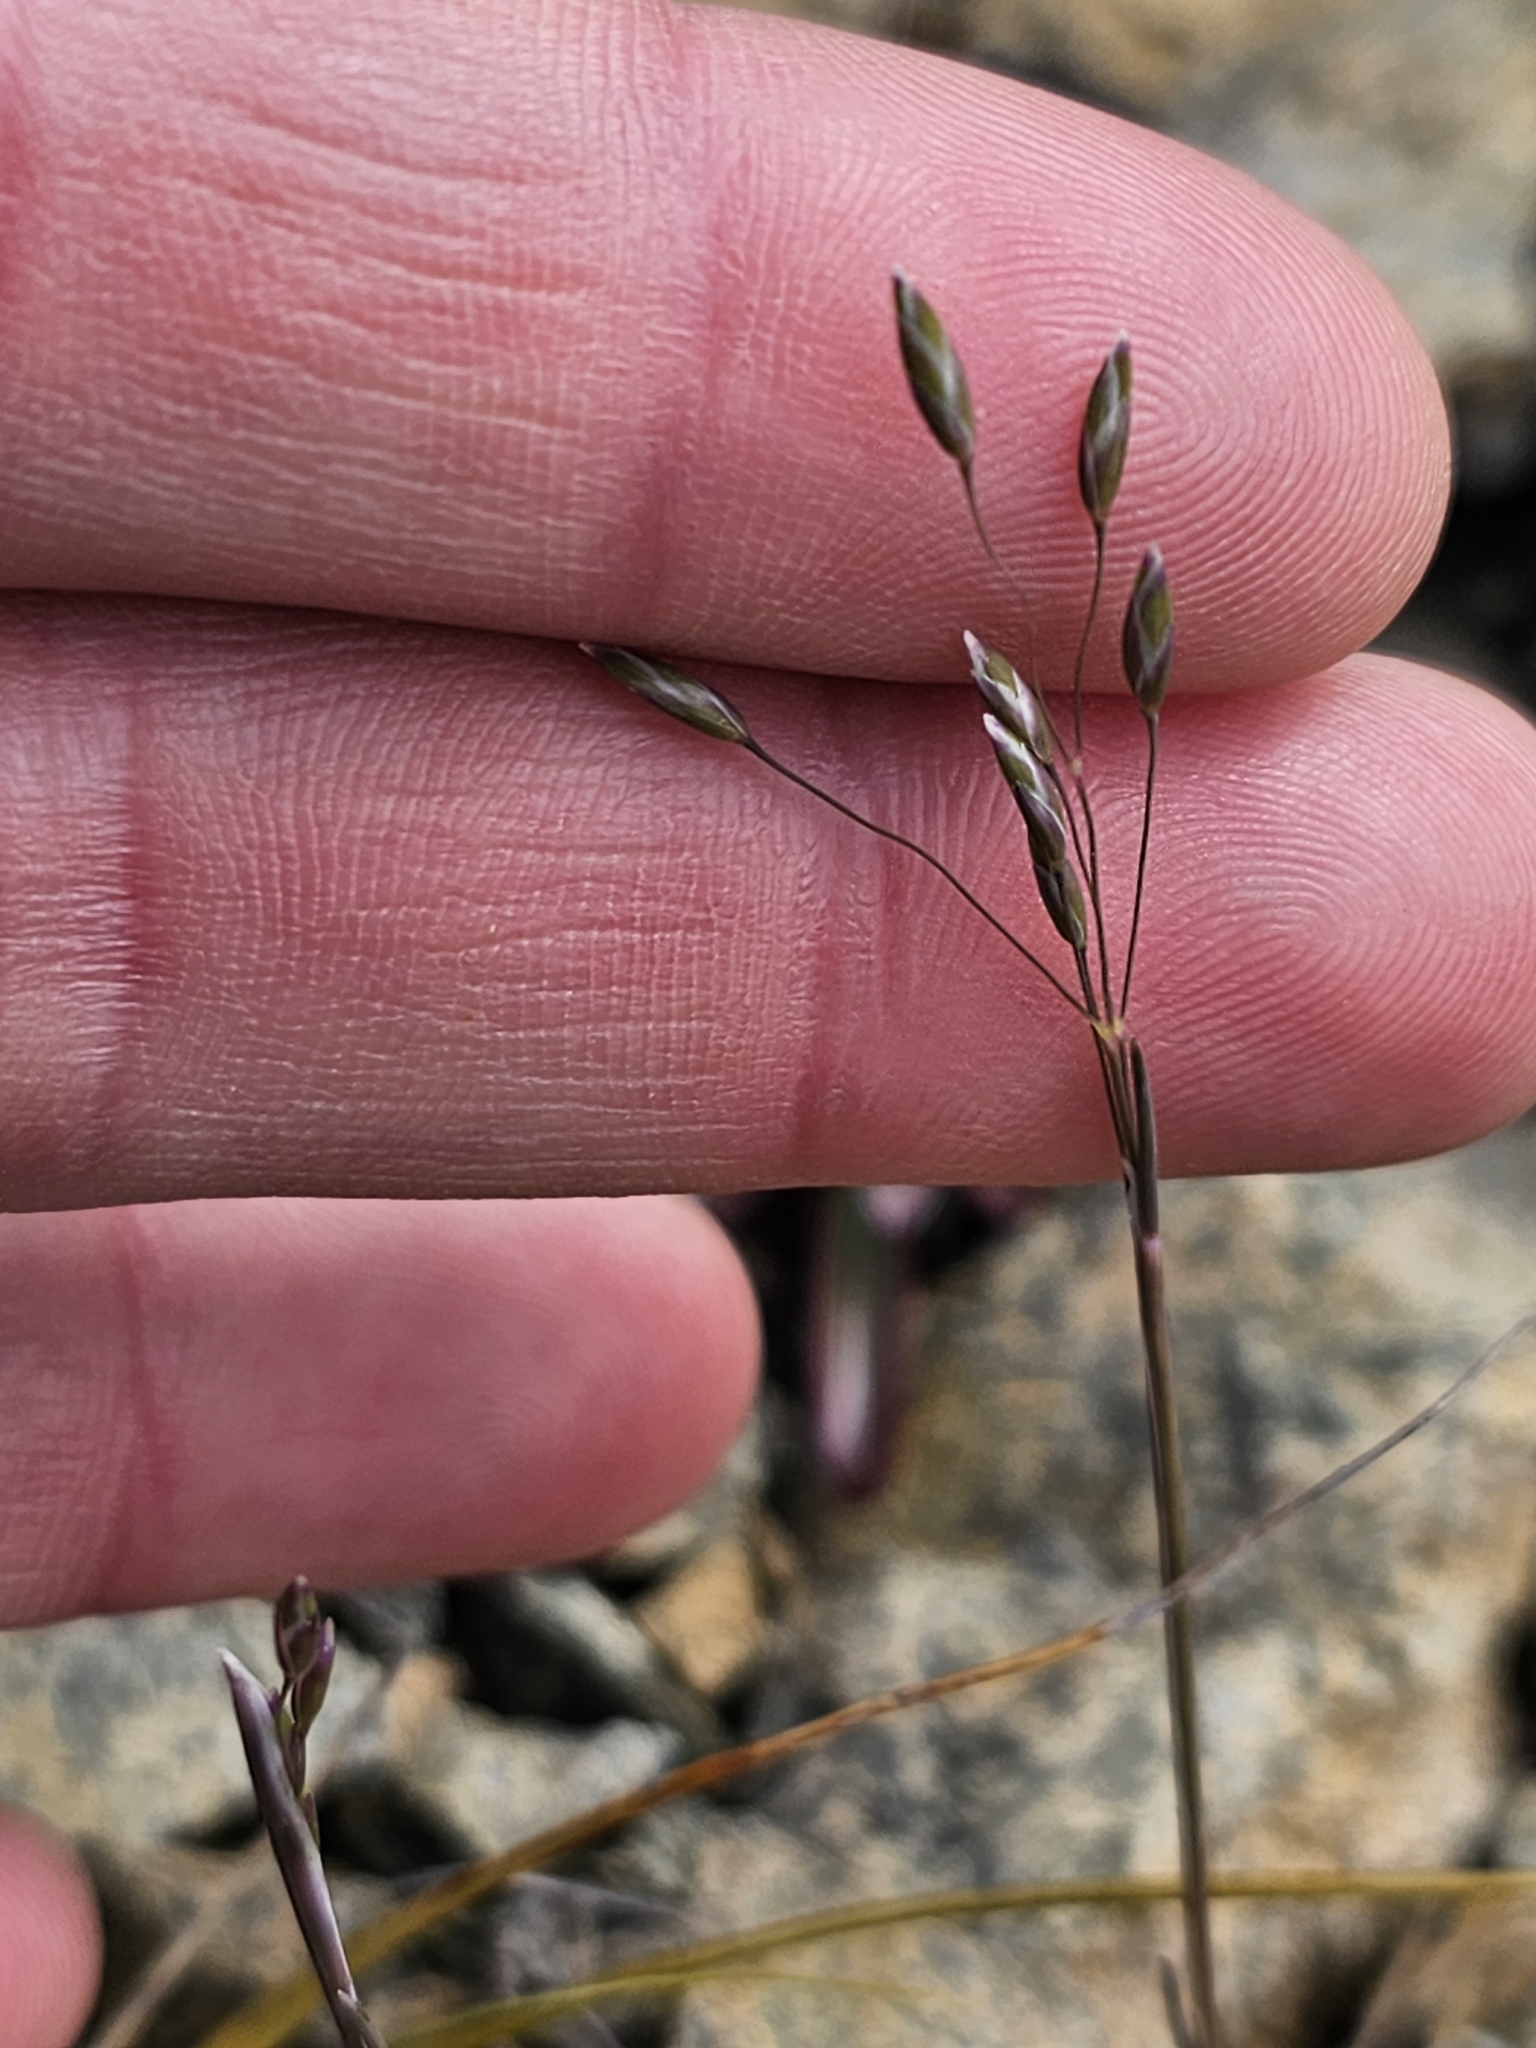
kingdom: Plantae
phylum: Tracheophyta
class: Liliopsida
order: Poales
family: Poaceae
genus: Poa
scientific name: Poa acicularifolia
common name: Limestone cushion poa
